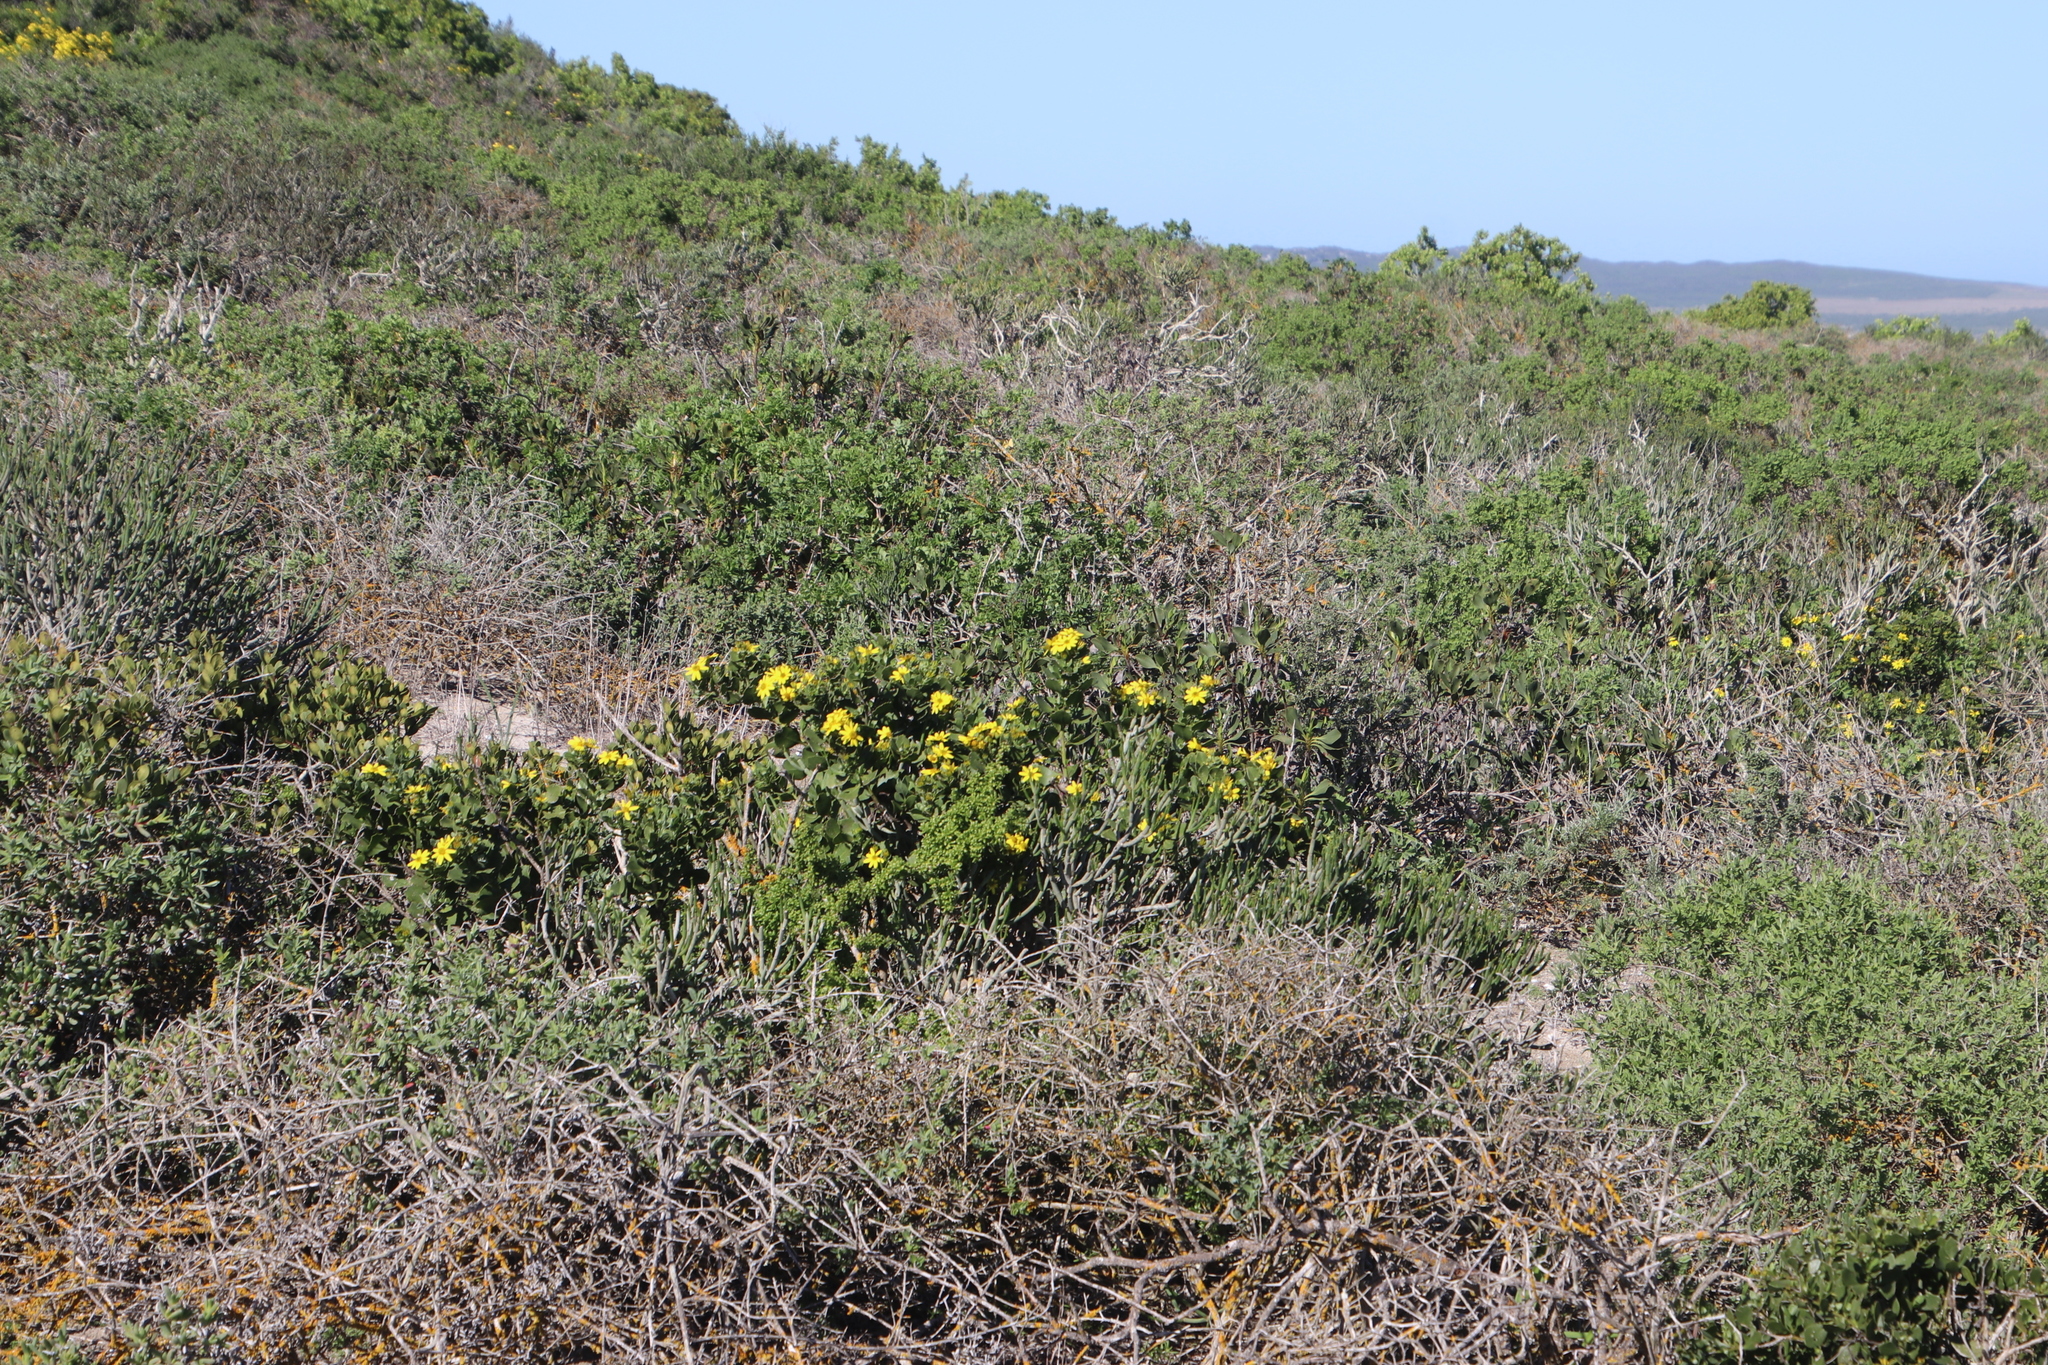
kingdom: Plantae
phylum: Tracheophyta
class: Magnoliopsida
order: Asterales
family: Asteraceae
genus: Osteospermum
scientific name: Osteospermum moniliferum
